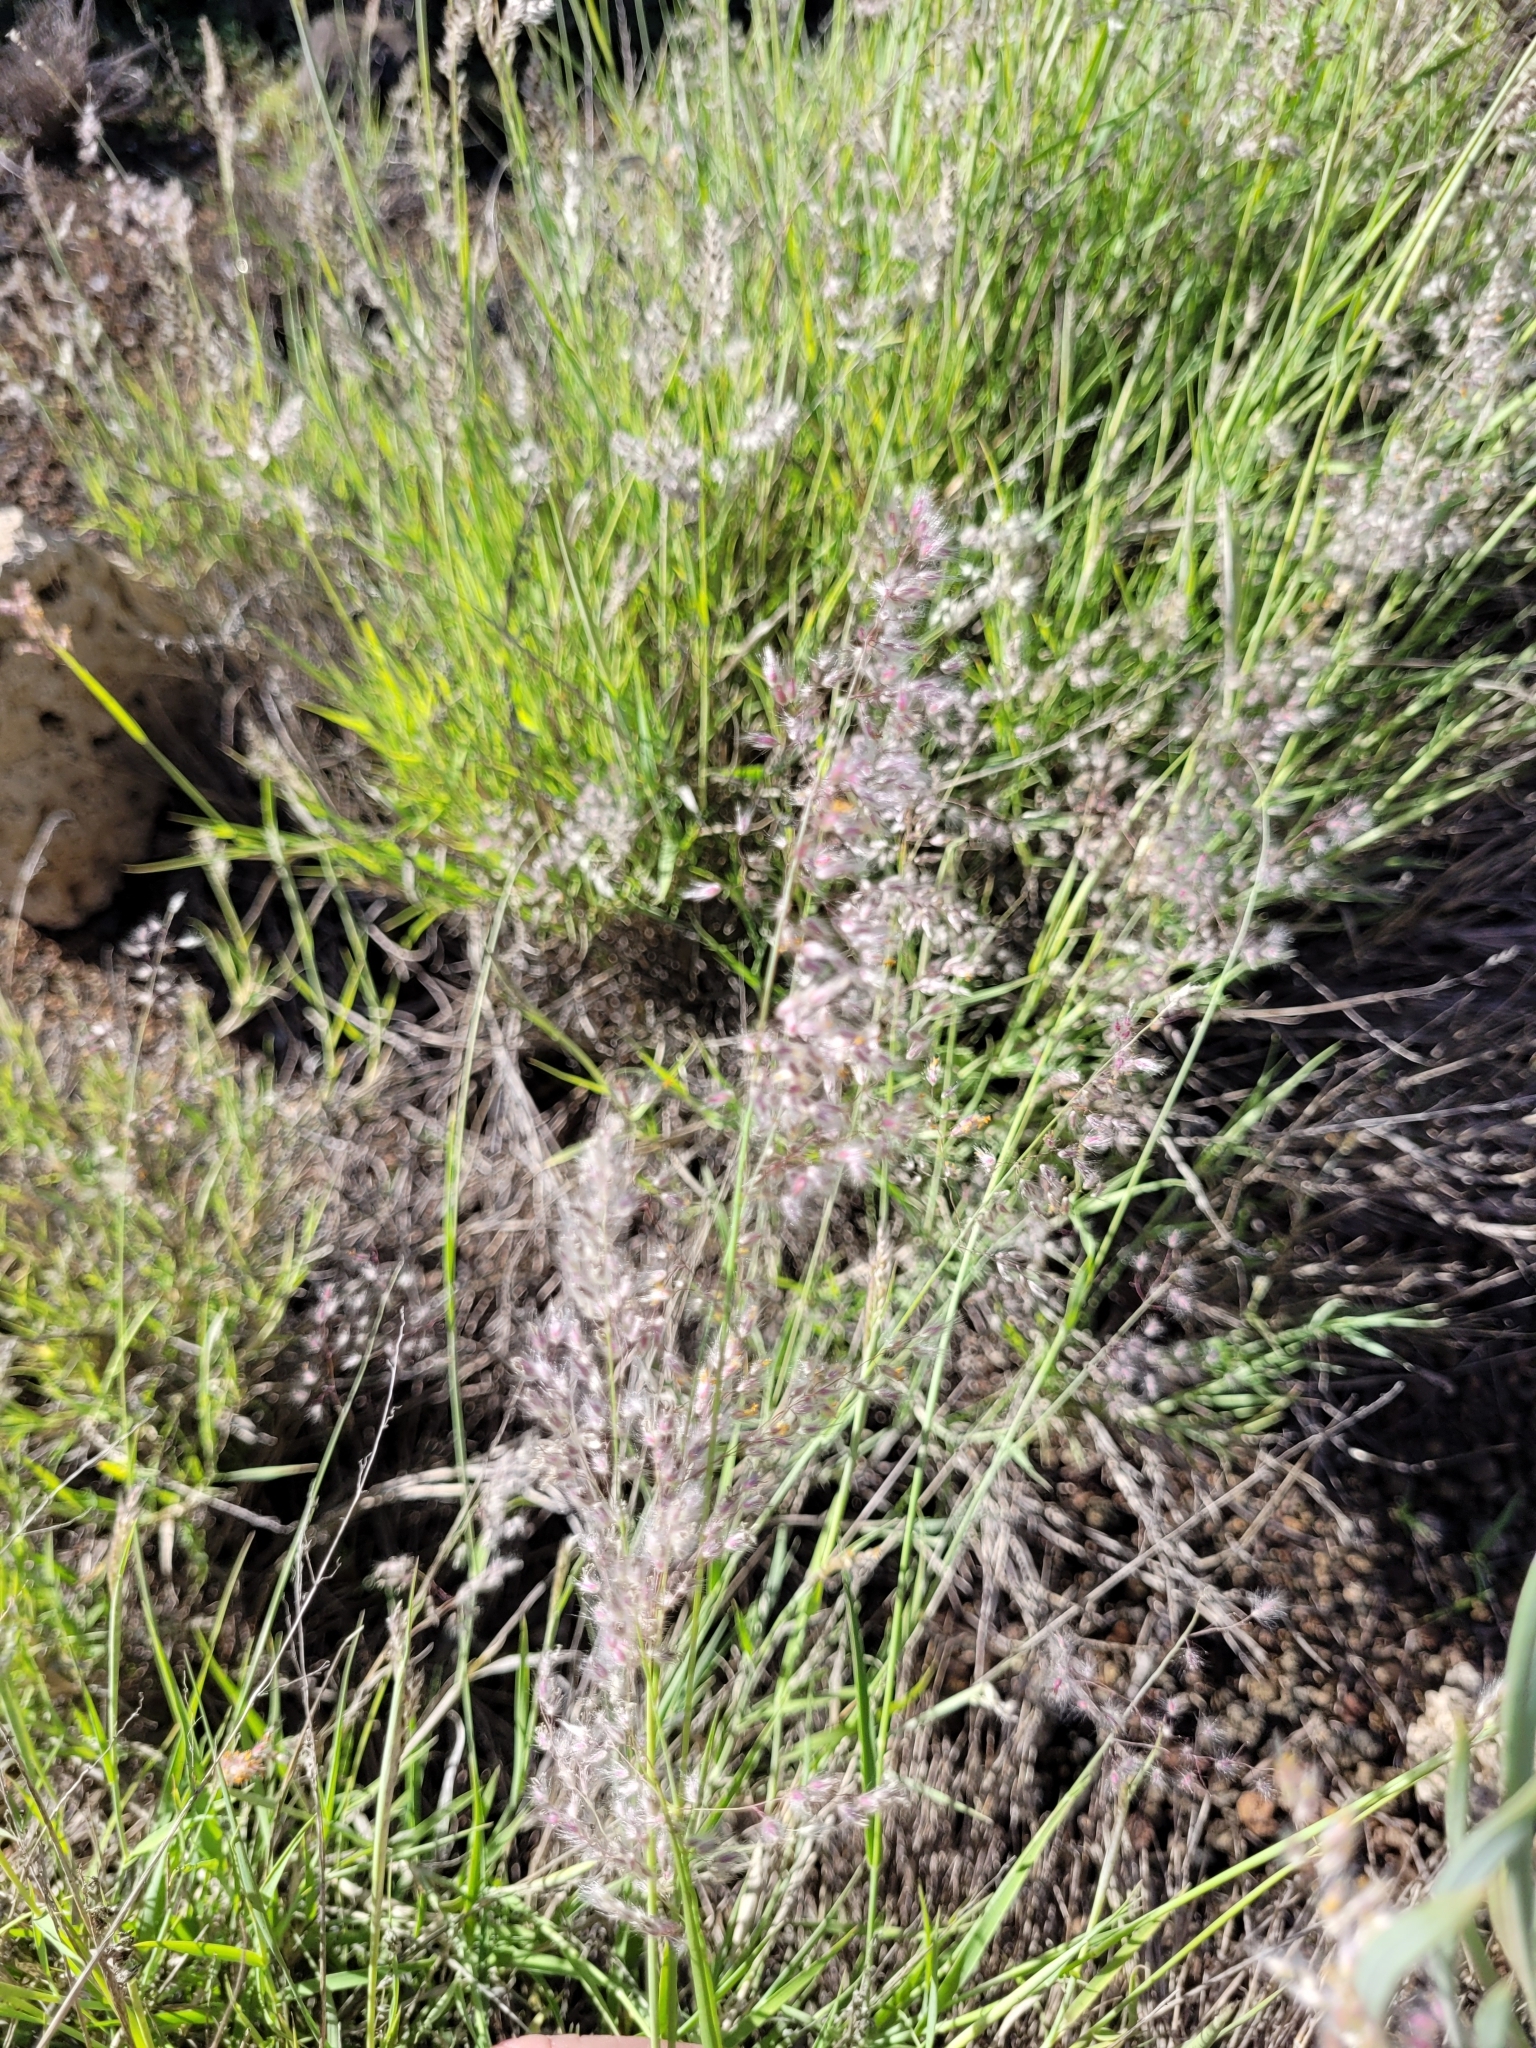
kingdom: Plantae
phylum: Tracheophyta
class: Liliopsida
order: Poales
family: Poaceae
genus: Tricholaena
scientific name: Tricholaena teneriffae
